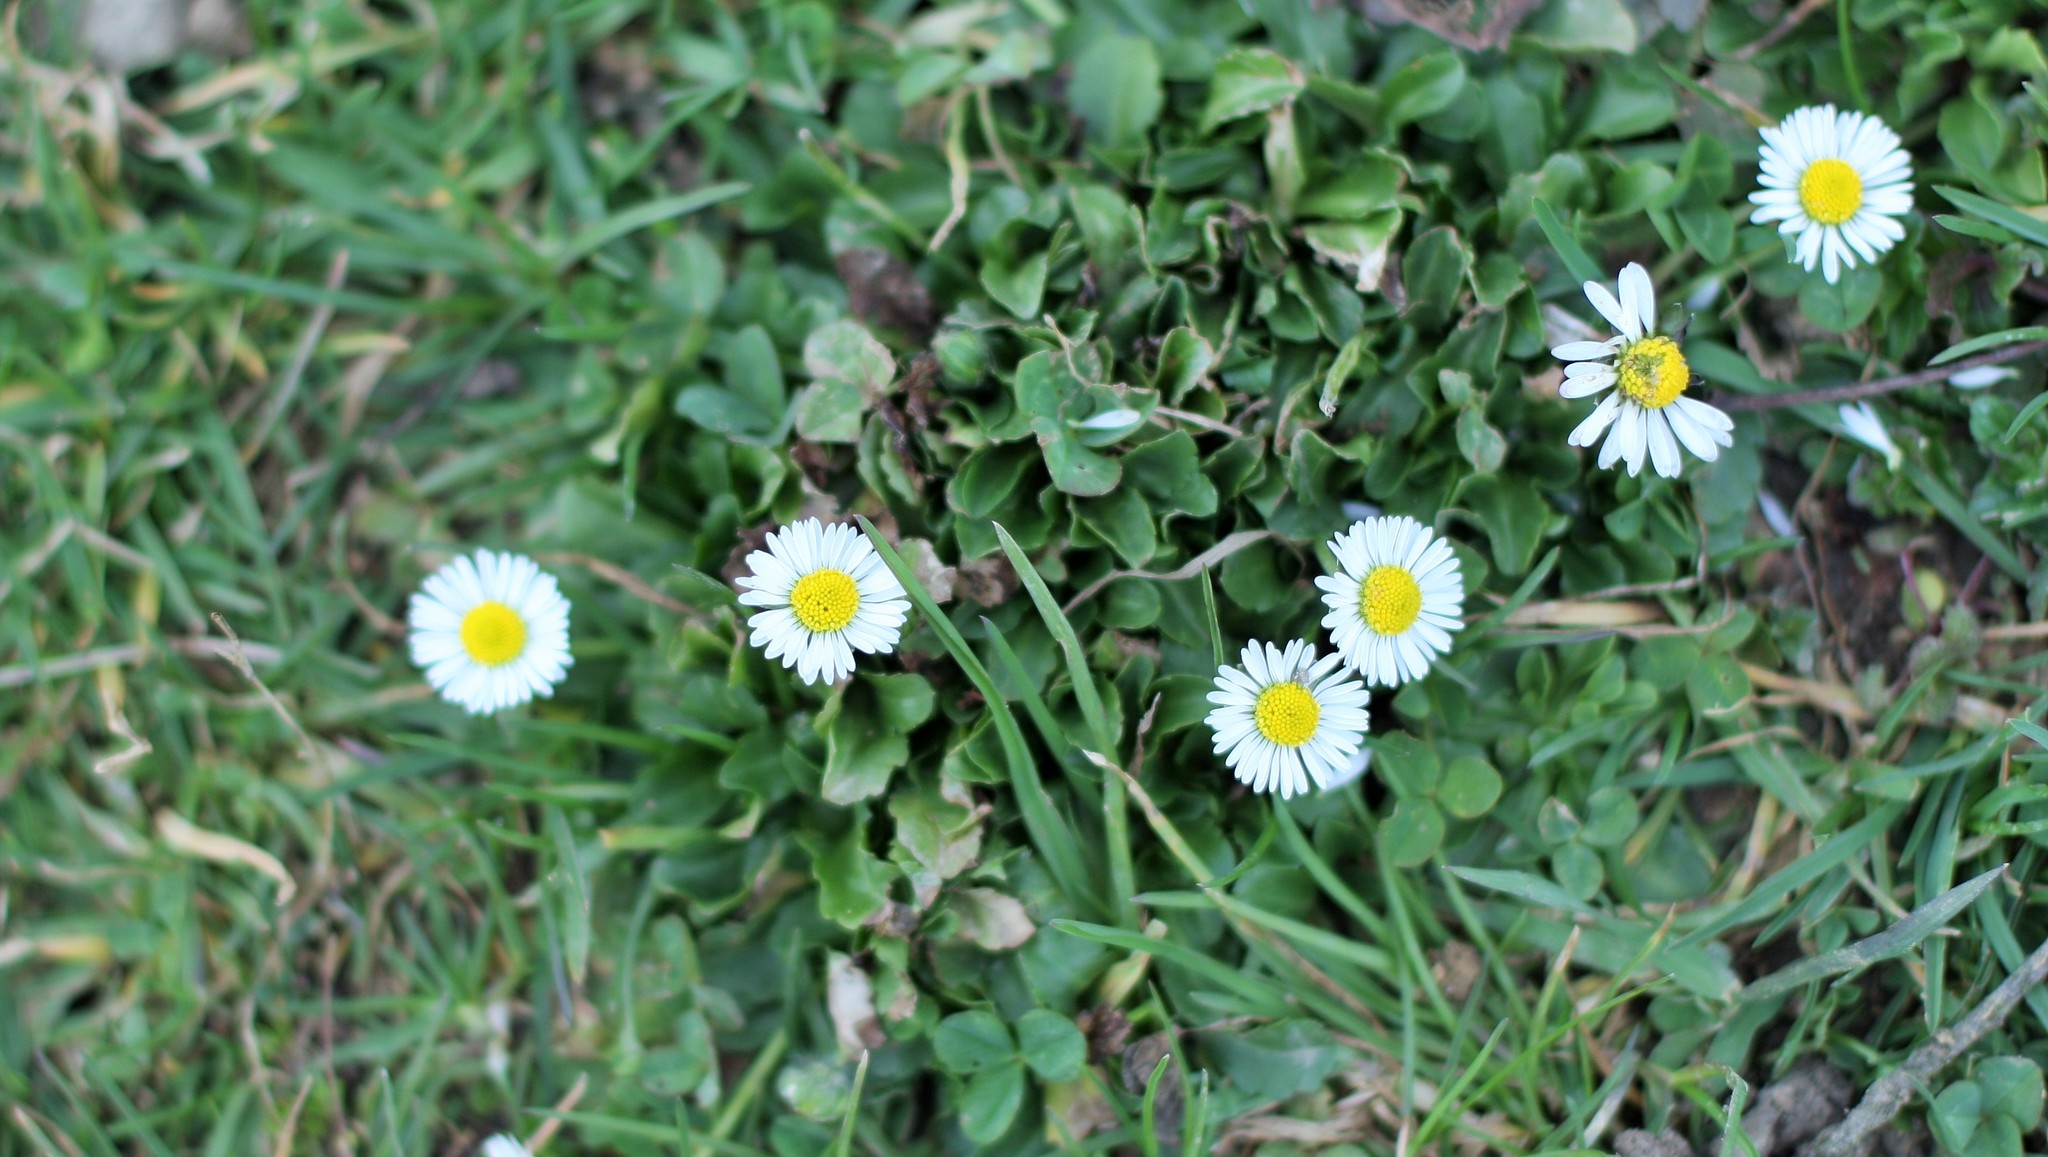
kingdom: Plantae
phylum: Tracheophyta
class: Magnoliopsida
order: Asterales
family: Asteraceae
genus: Bellis
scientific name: Bellis perennis
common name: Lawndaisy
